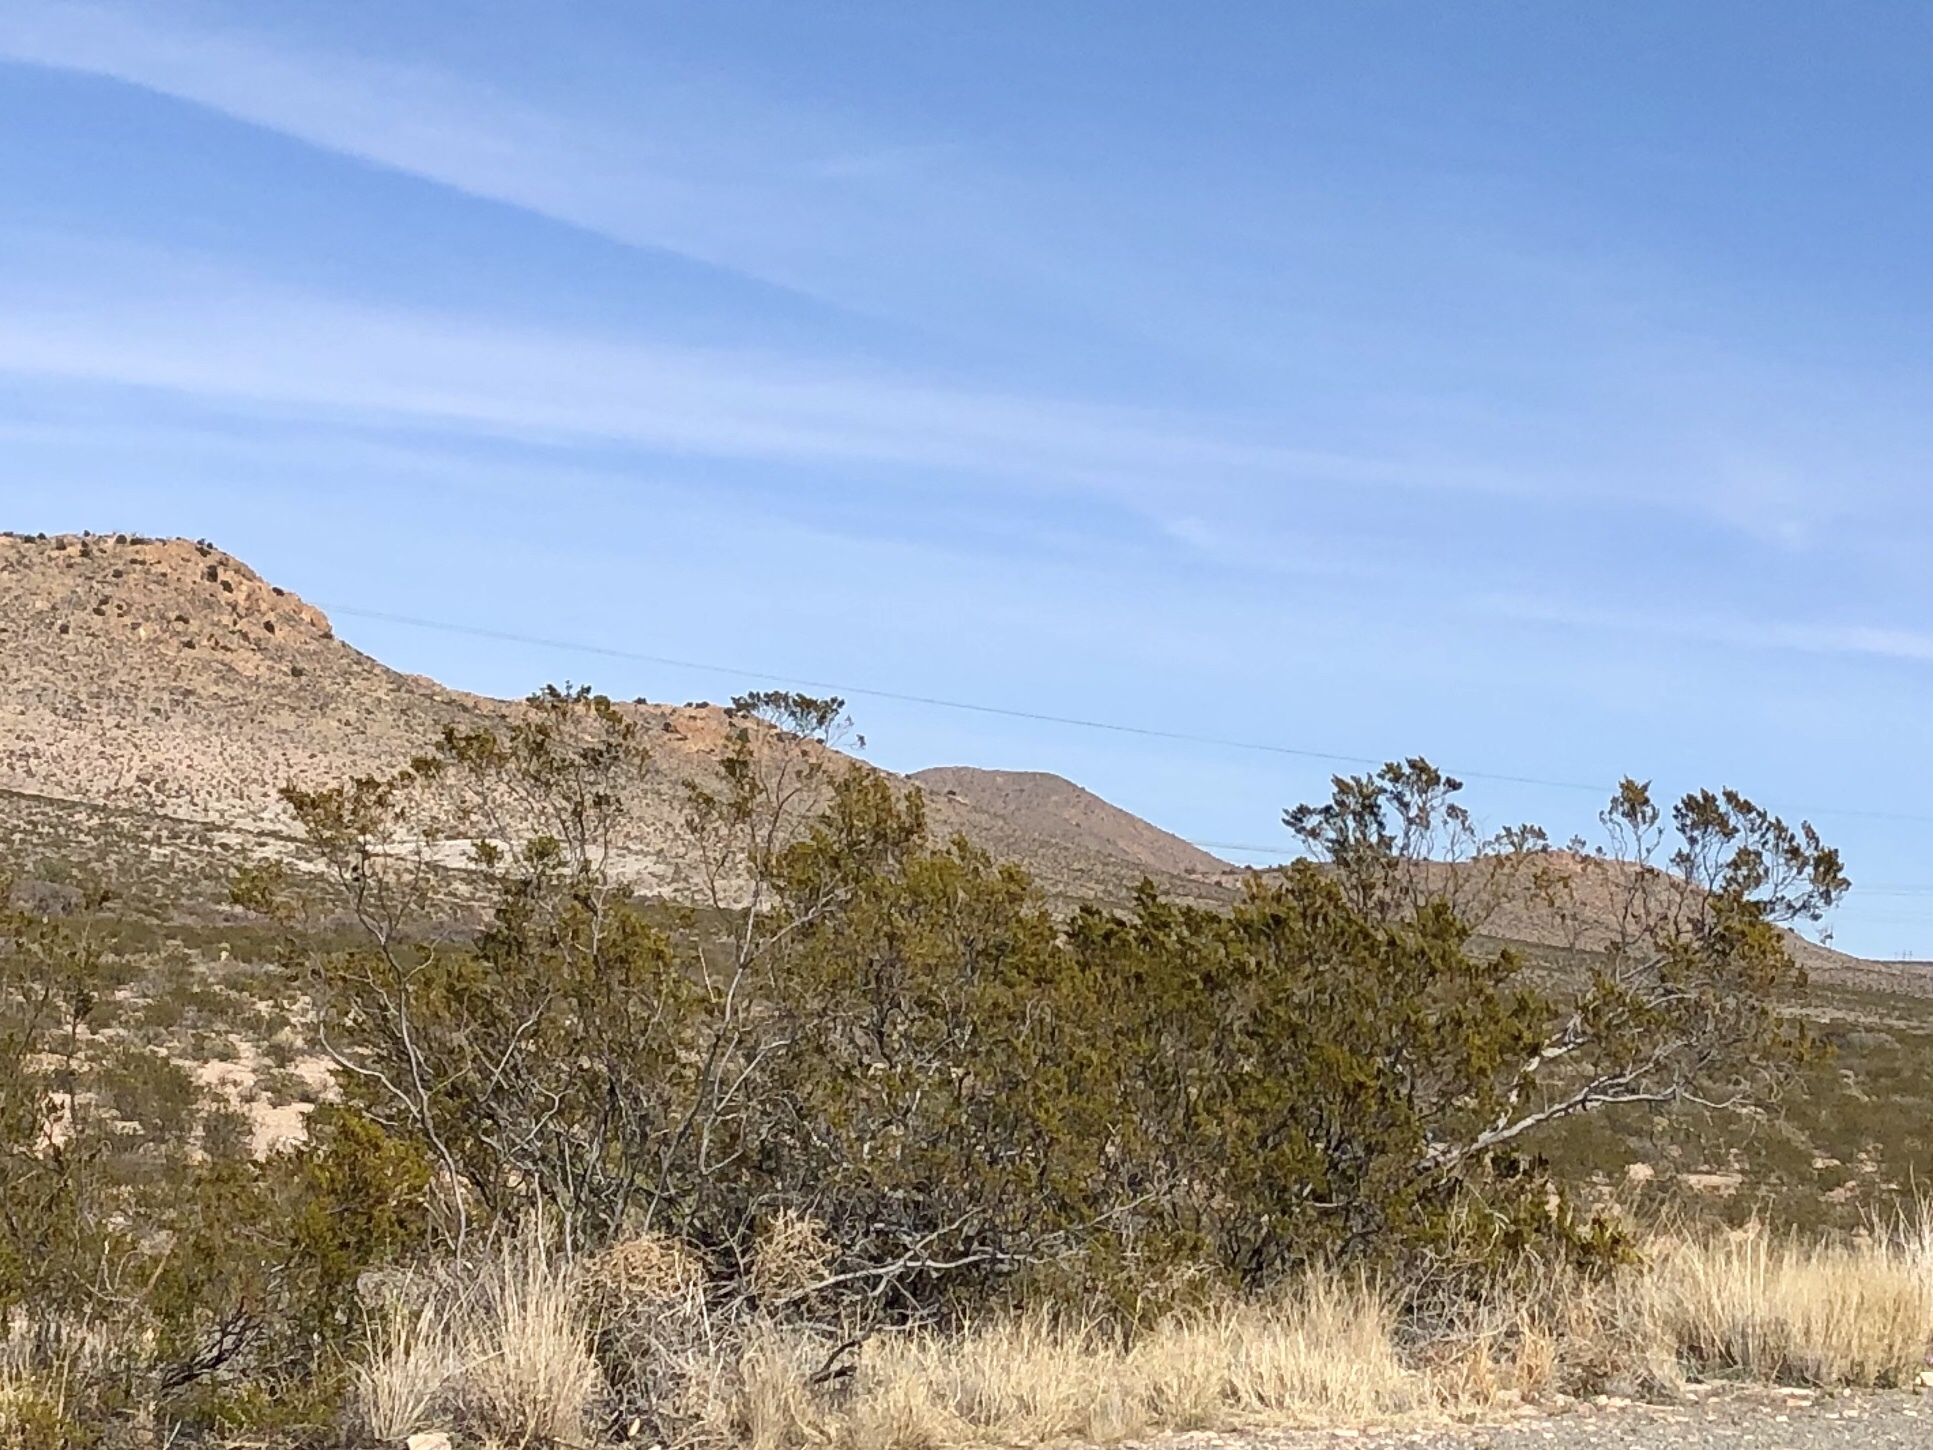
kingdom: Plantae
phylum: Tracheophyta
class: Magnoliopsida
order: Zygophyllales
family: Zygophyllaceae
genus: Larrea
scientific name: Larrea tridentata
